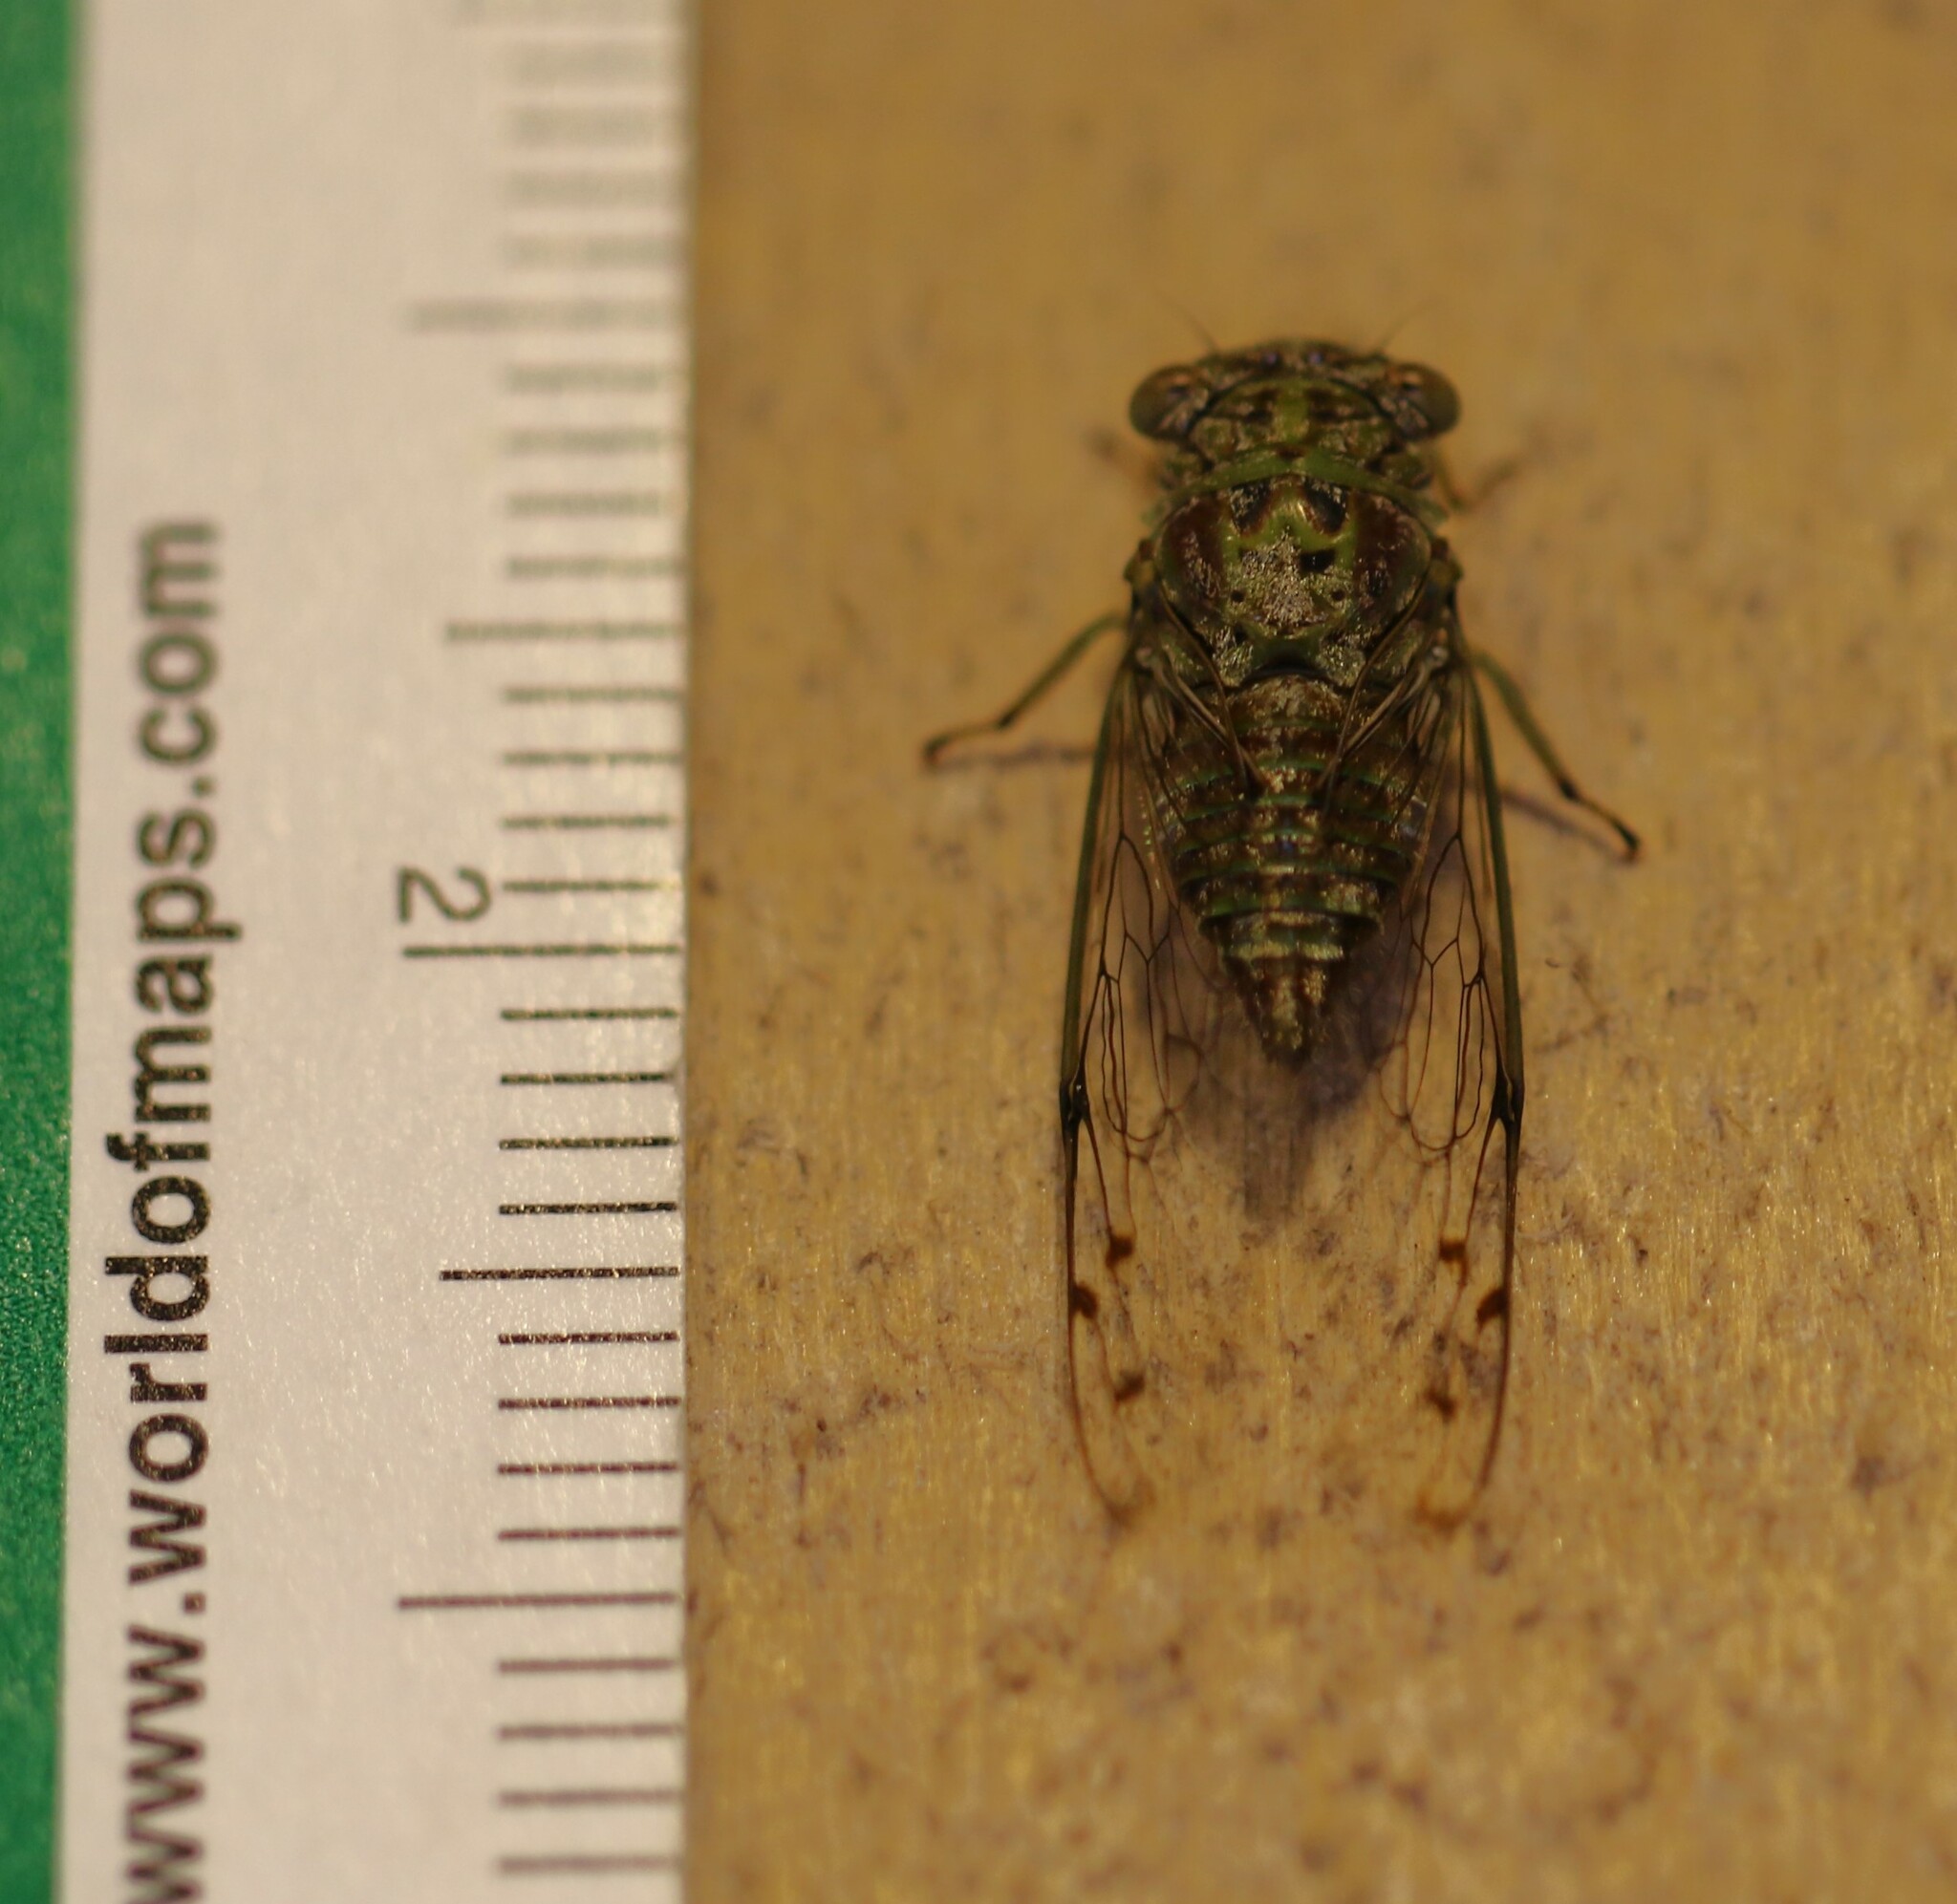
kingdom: Animalia
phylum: Arthropoda
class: Insecta
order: Hemiptera
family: Cicadidae
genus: Pacarina
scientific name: Pacarina schumanni
